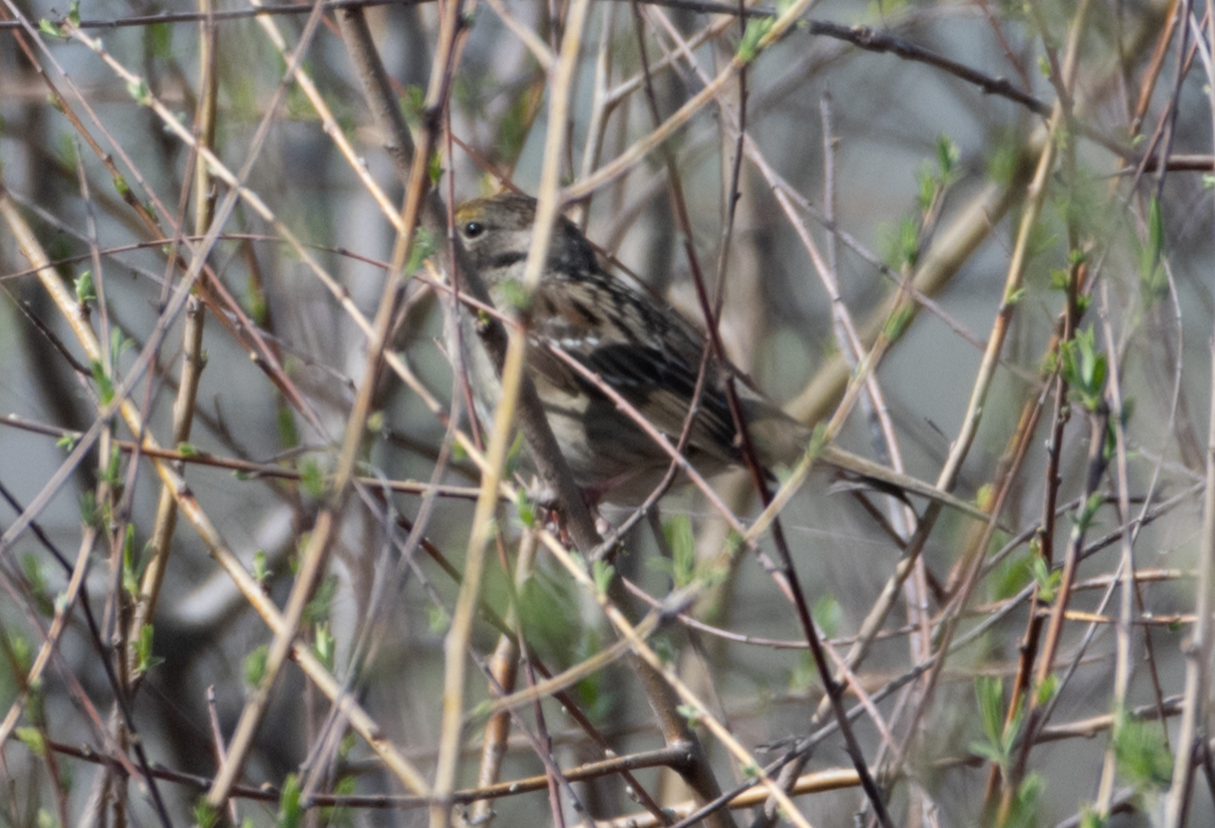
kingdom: Animalia
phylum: Chordata
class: Aves
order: Passeriformes
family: Passerellidae
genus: Zonotrichia
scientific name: Zonotrichia atricapilla
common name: Golden-crowned sparrow
